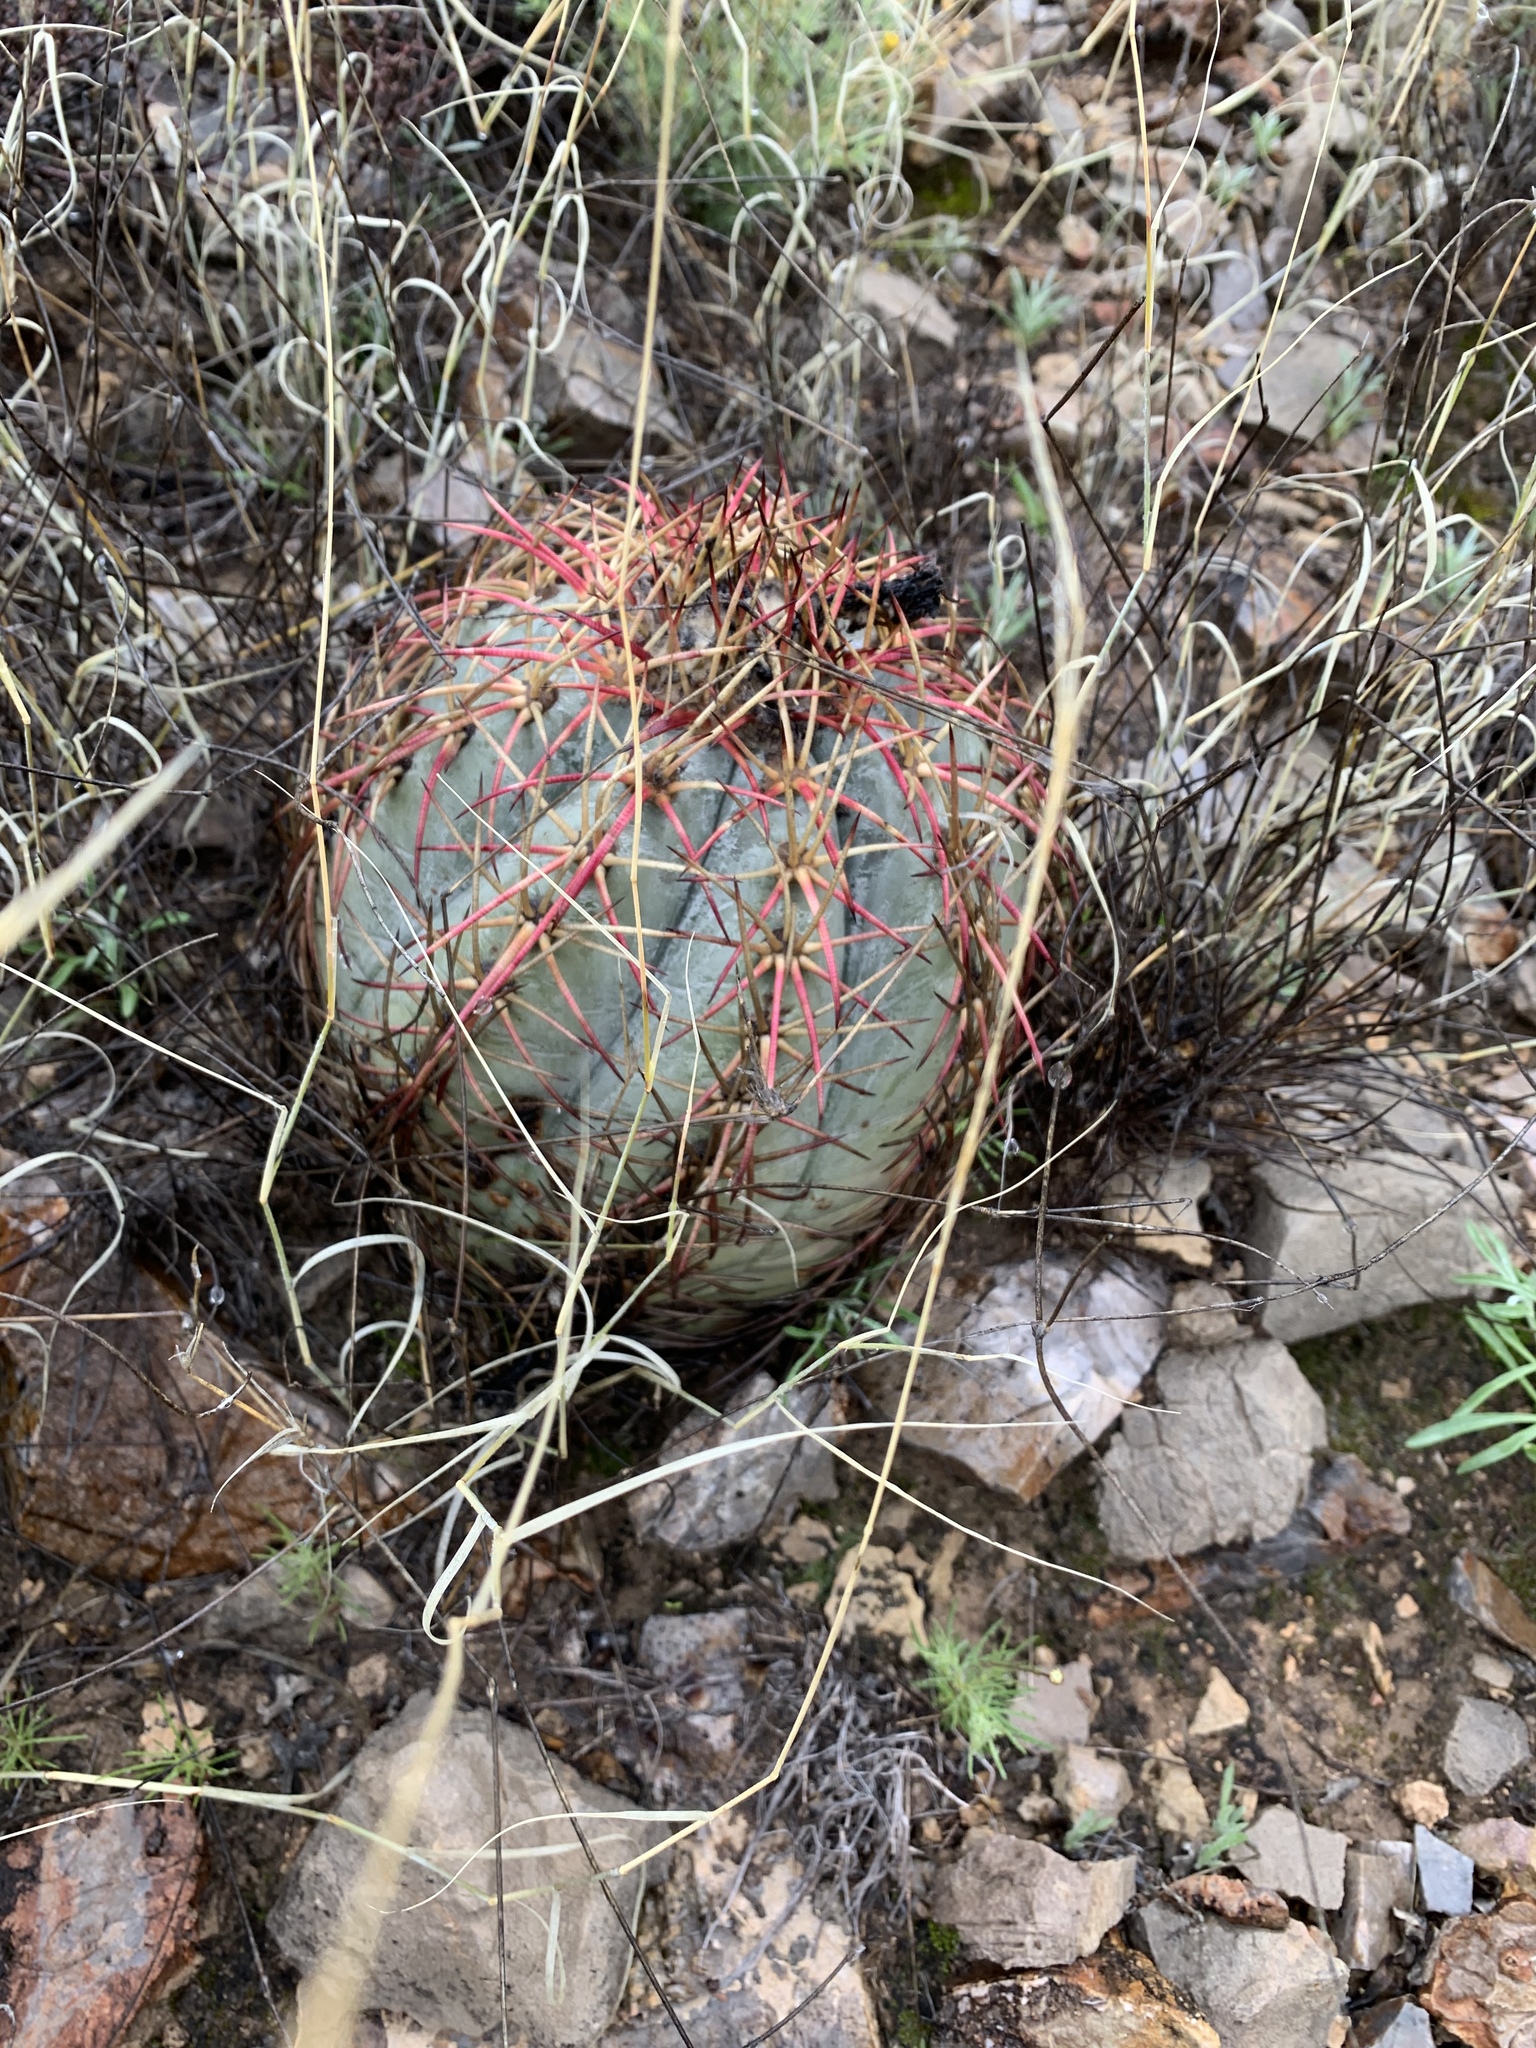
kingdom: Plantae
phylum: Tracheophyta
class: Magnoliopsida
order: Caryophyllales
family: Cactaceae
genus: Echinocactus
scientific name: Echinocactus horizonthalonius
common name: Devilshead
